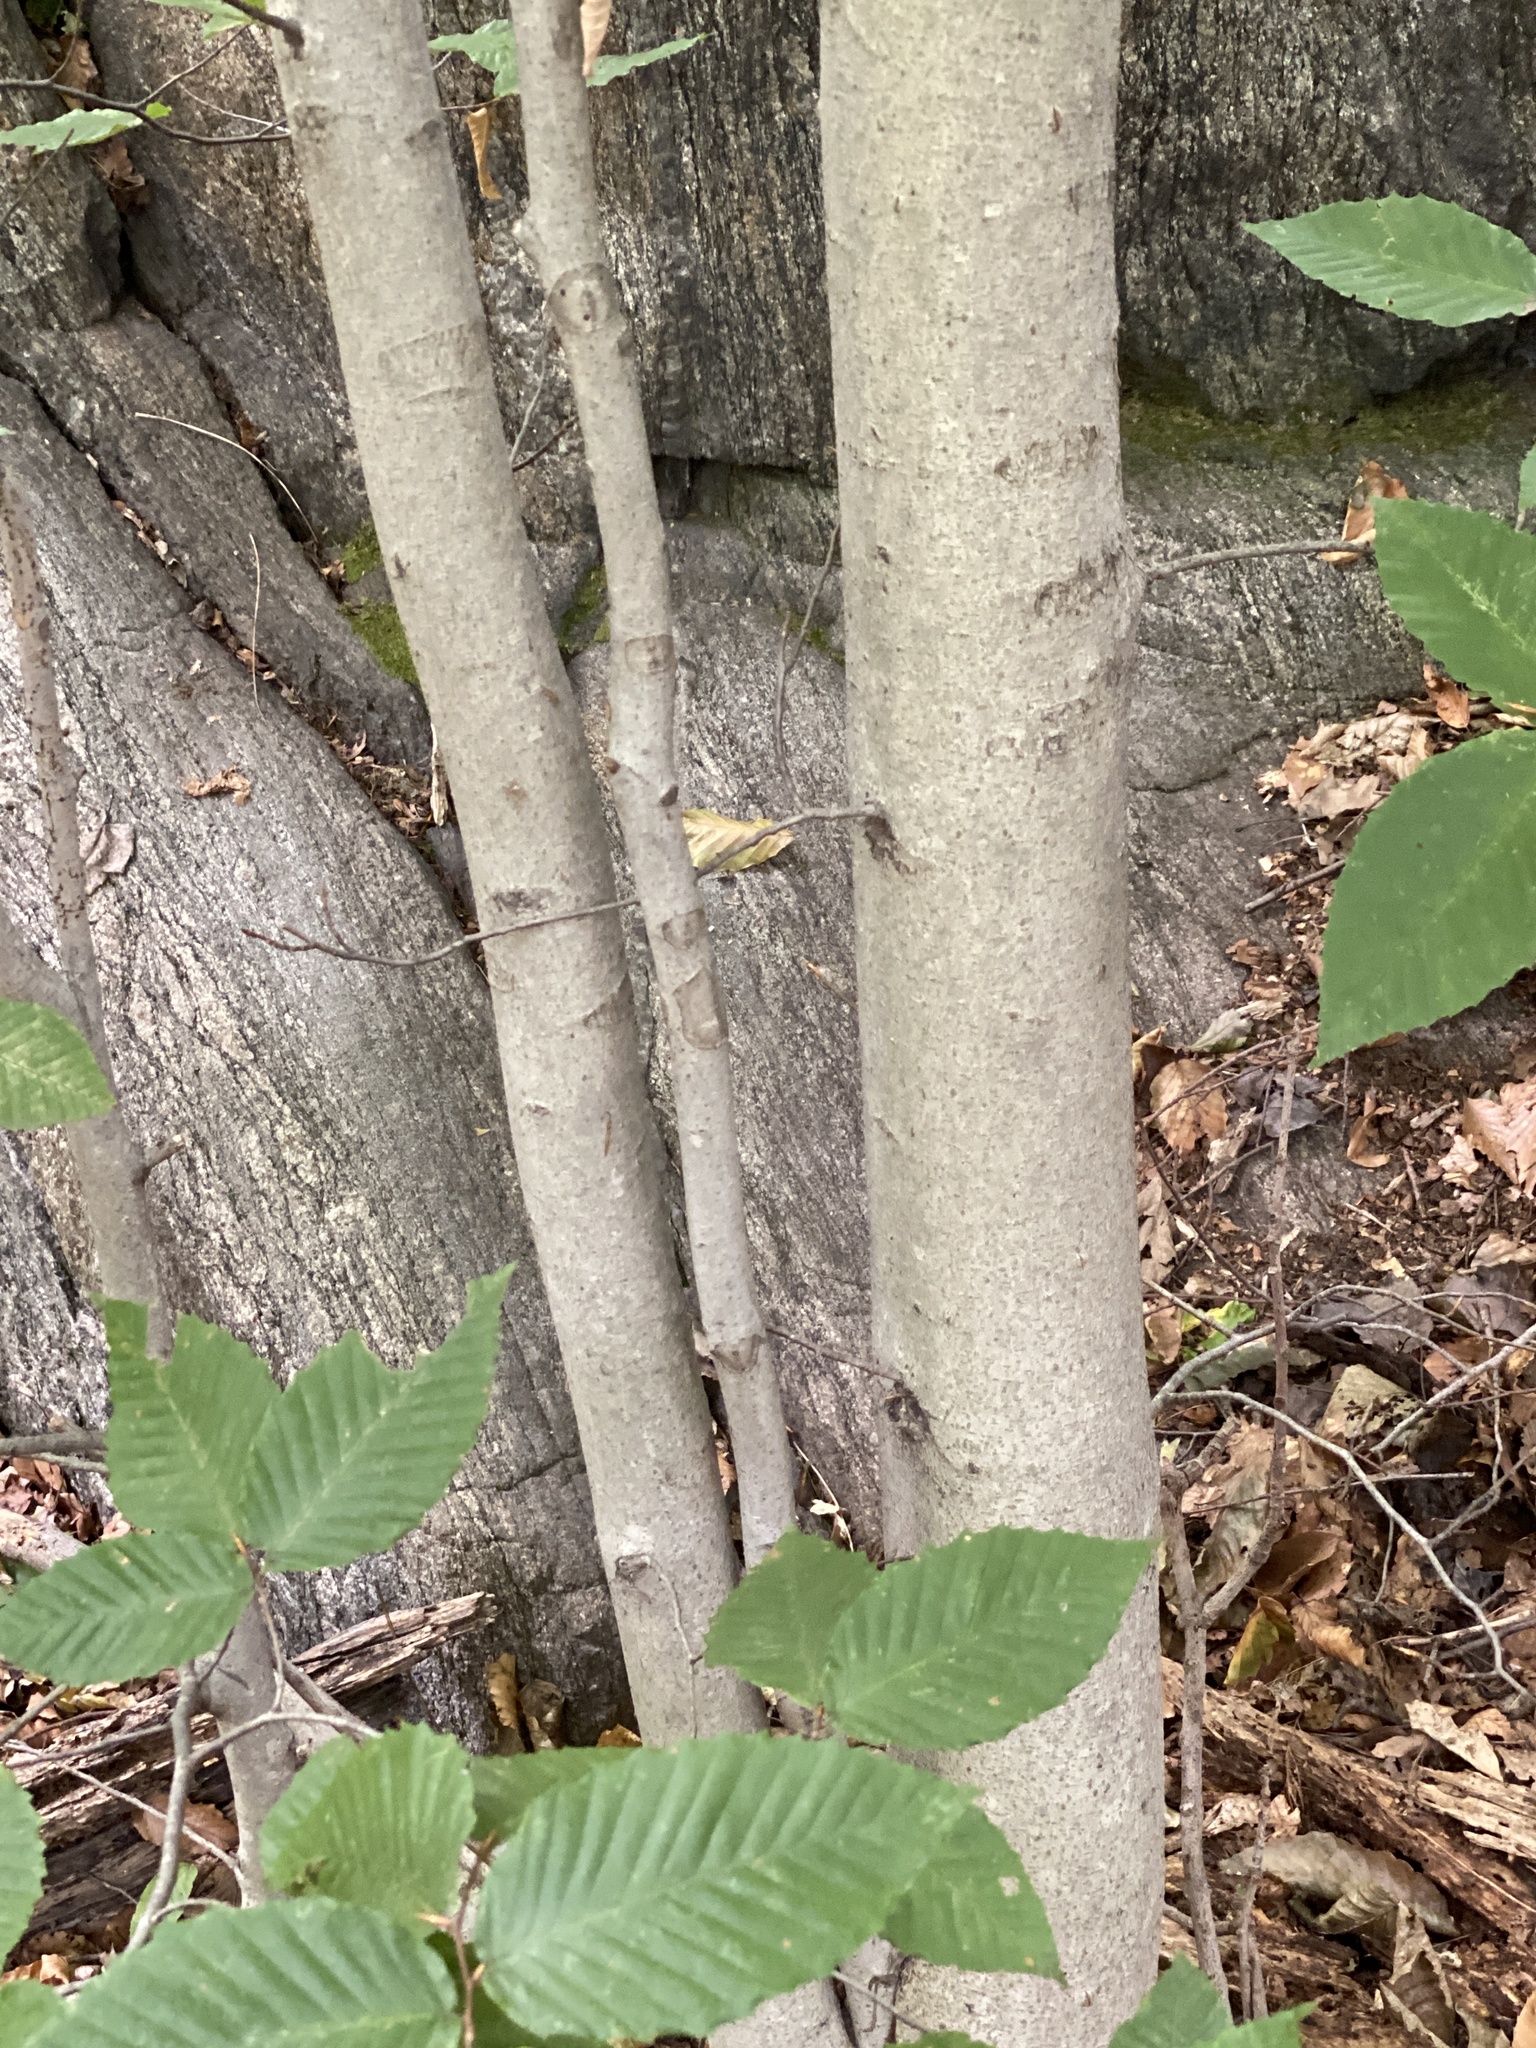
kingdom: Plantae
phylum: Tracheophyta
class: Magnoliopsida
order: Fagales
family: Fagaceae
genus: Fagus
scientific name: Fagus grandifolia
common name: American beech
